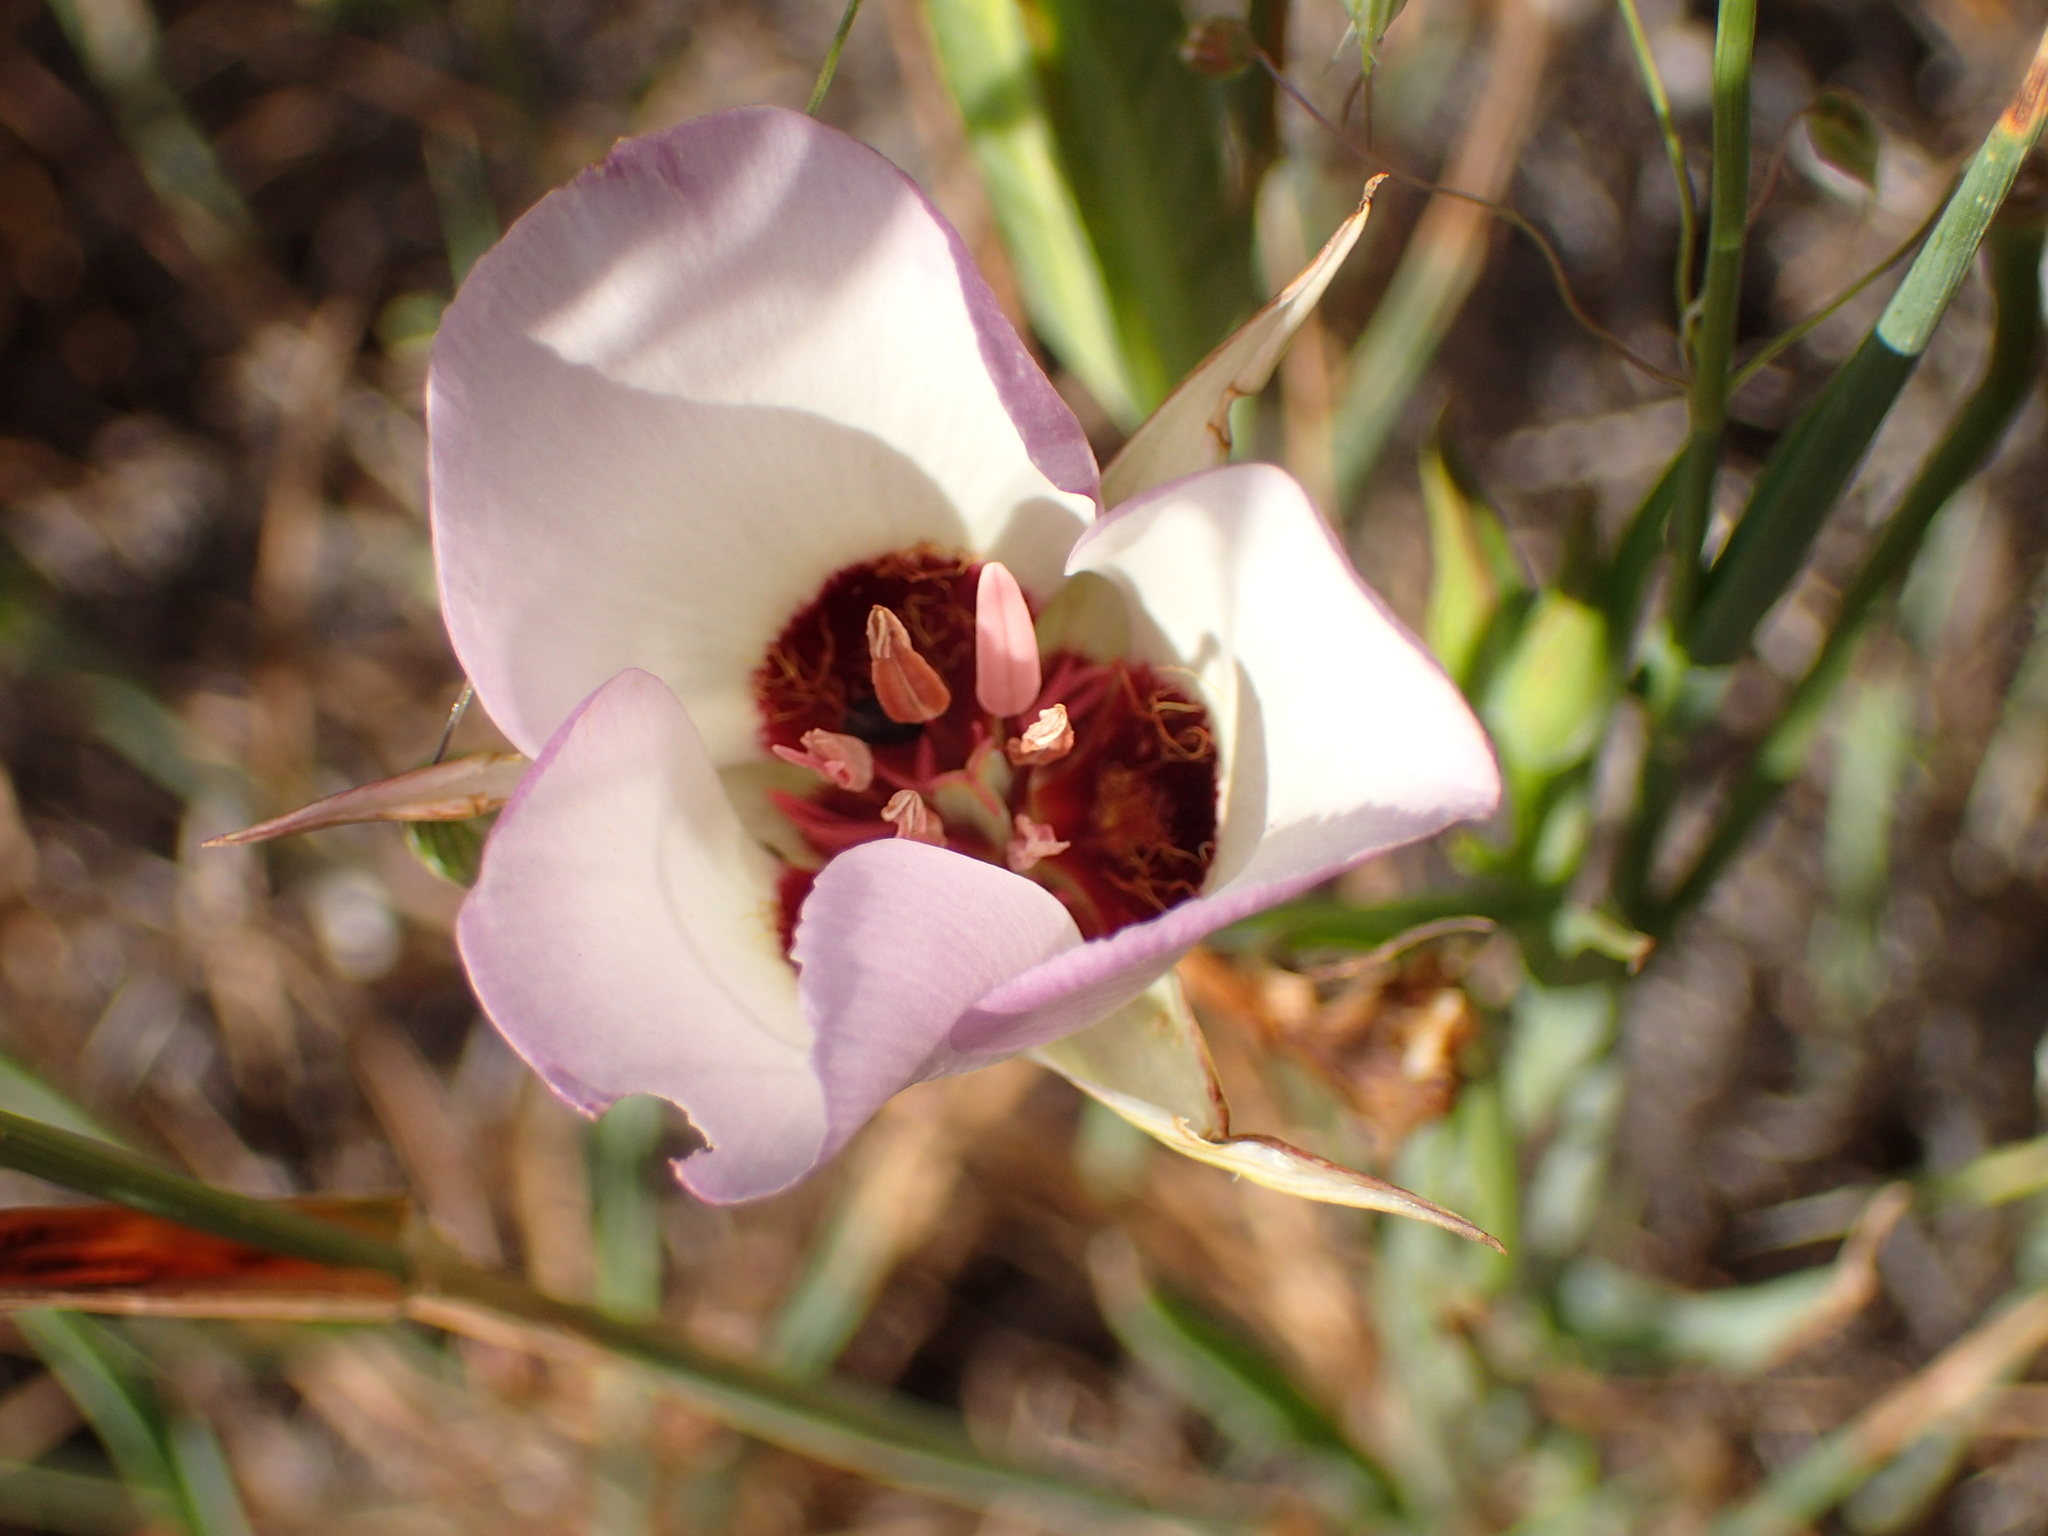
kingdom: Plantae
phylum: Tracheophyta
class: Liliopsida
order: Liliales
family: Liliaceae
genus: Calochortus
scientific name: Calochortus catalinae
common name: Catalina mariposa-lily
